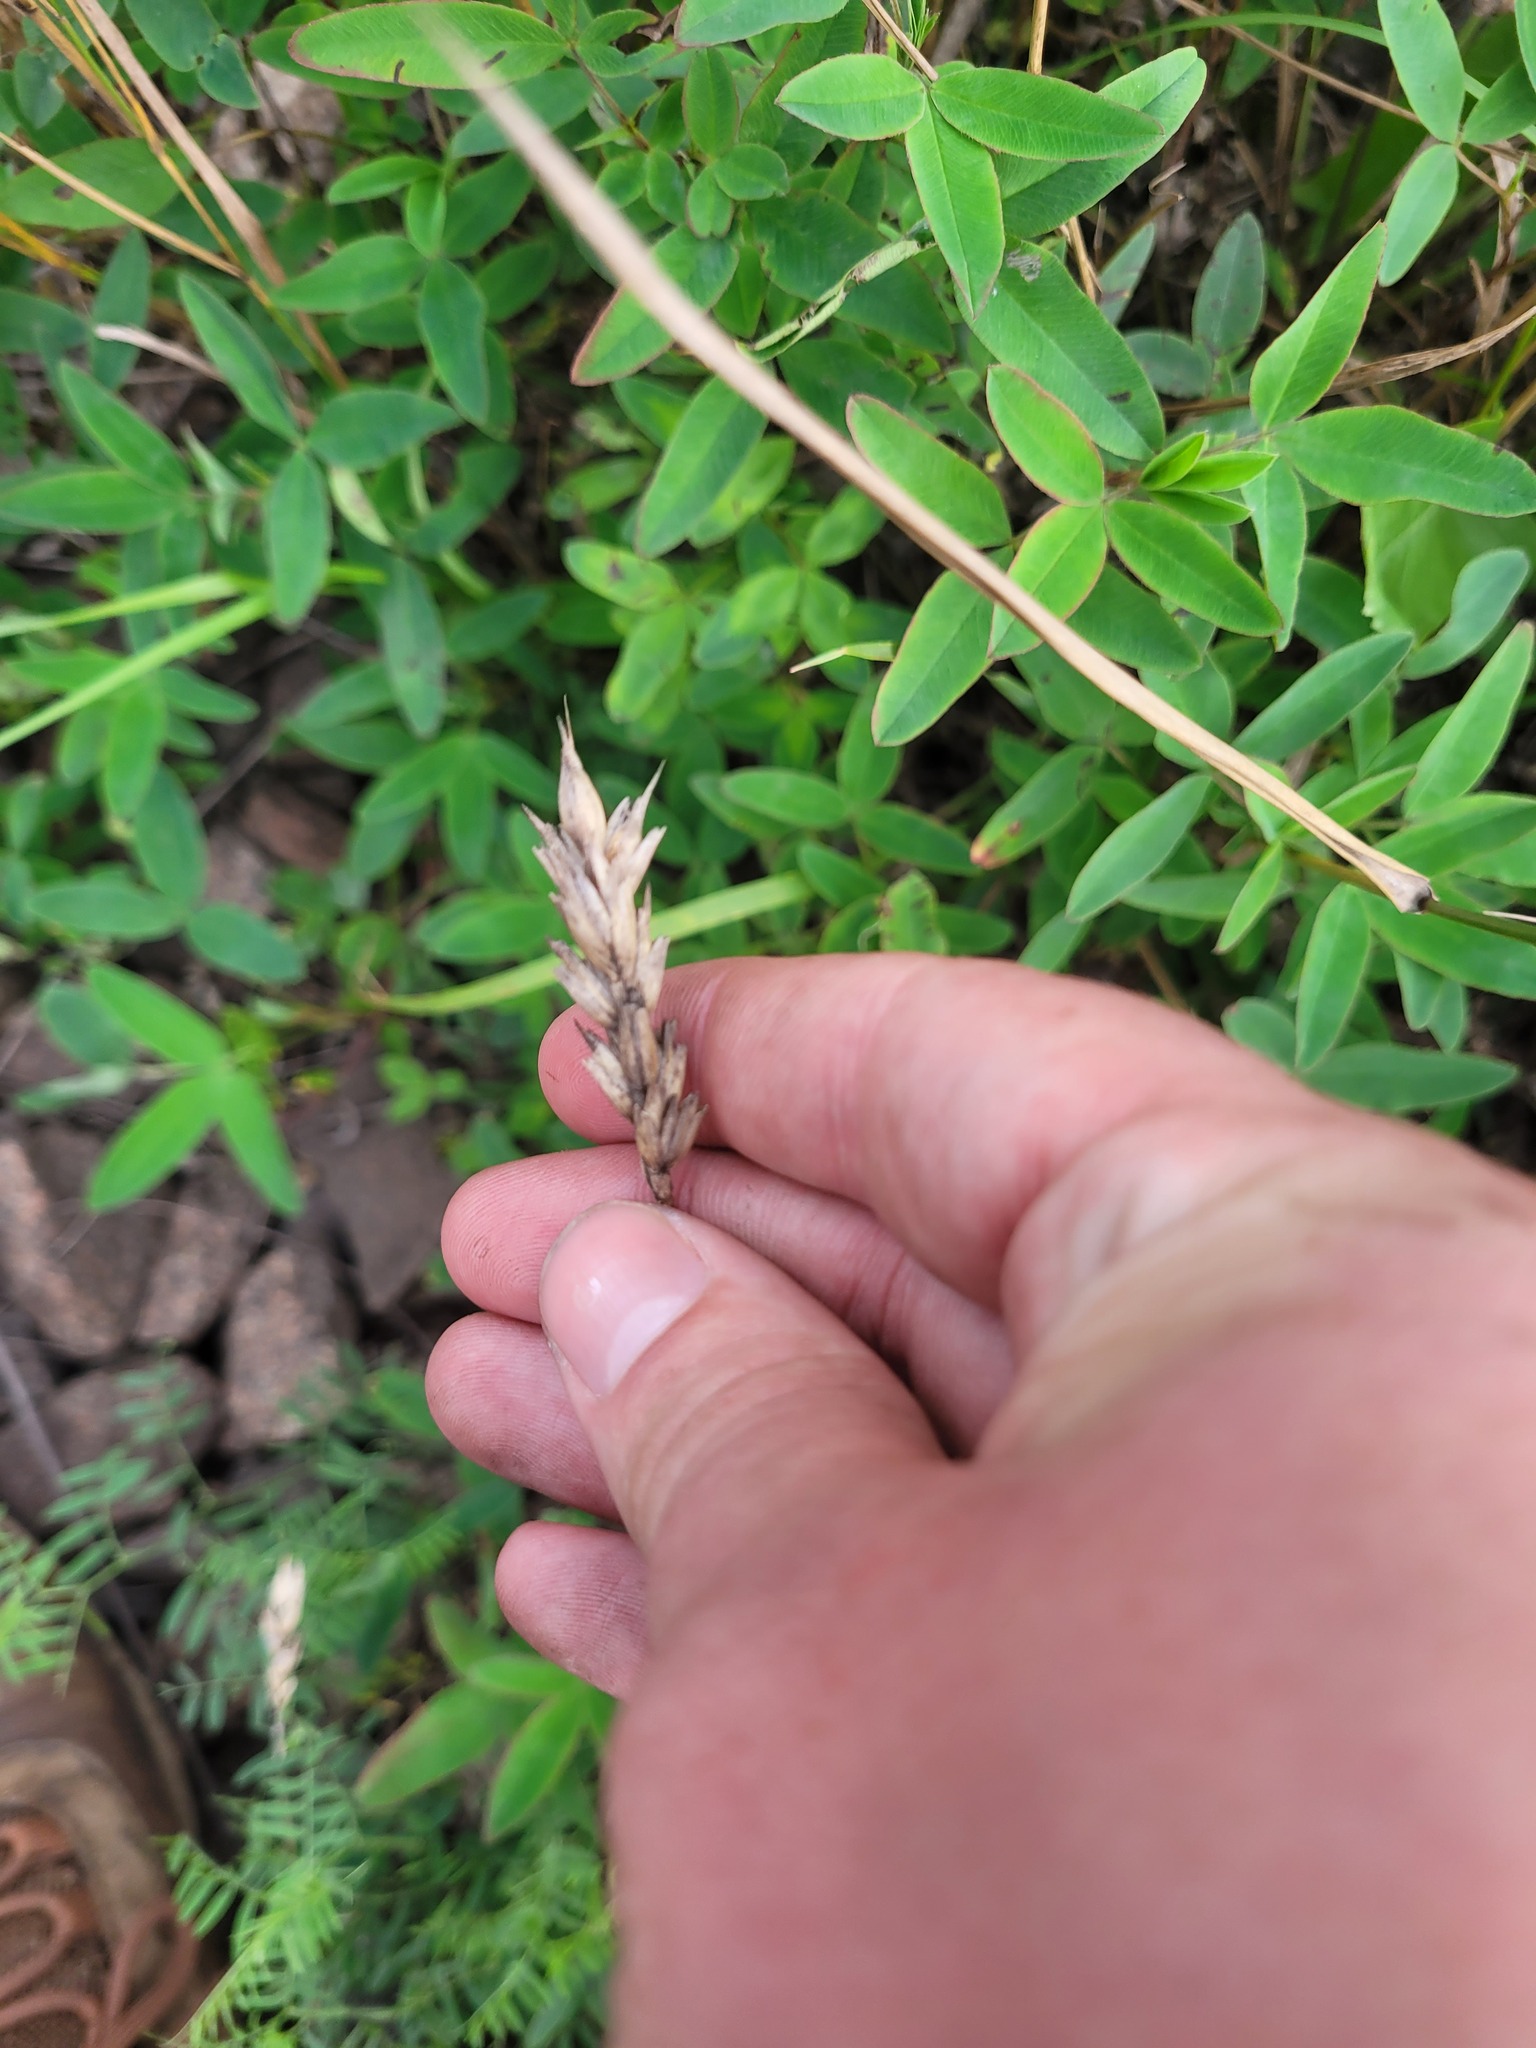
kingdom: Plantae
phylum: Tracheophyta
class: Liliopsida
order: Poales
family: Poaceae
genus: Triticum
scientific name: Triticum aestivum
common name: Common wheat
